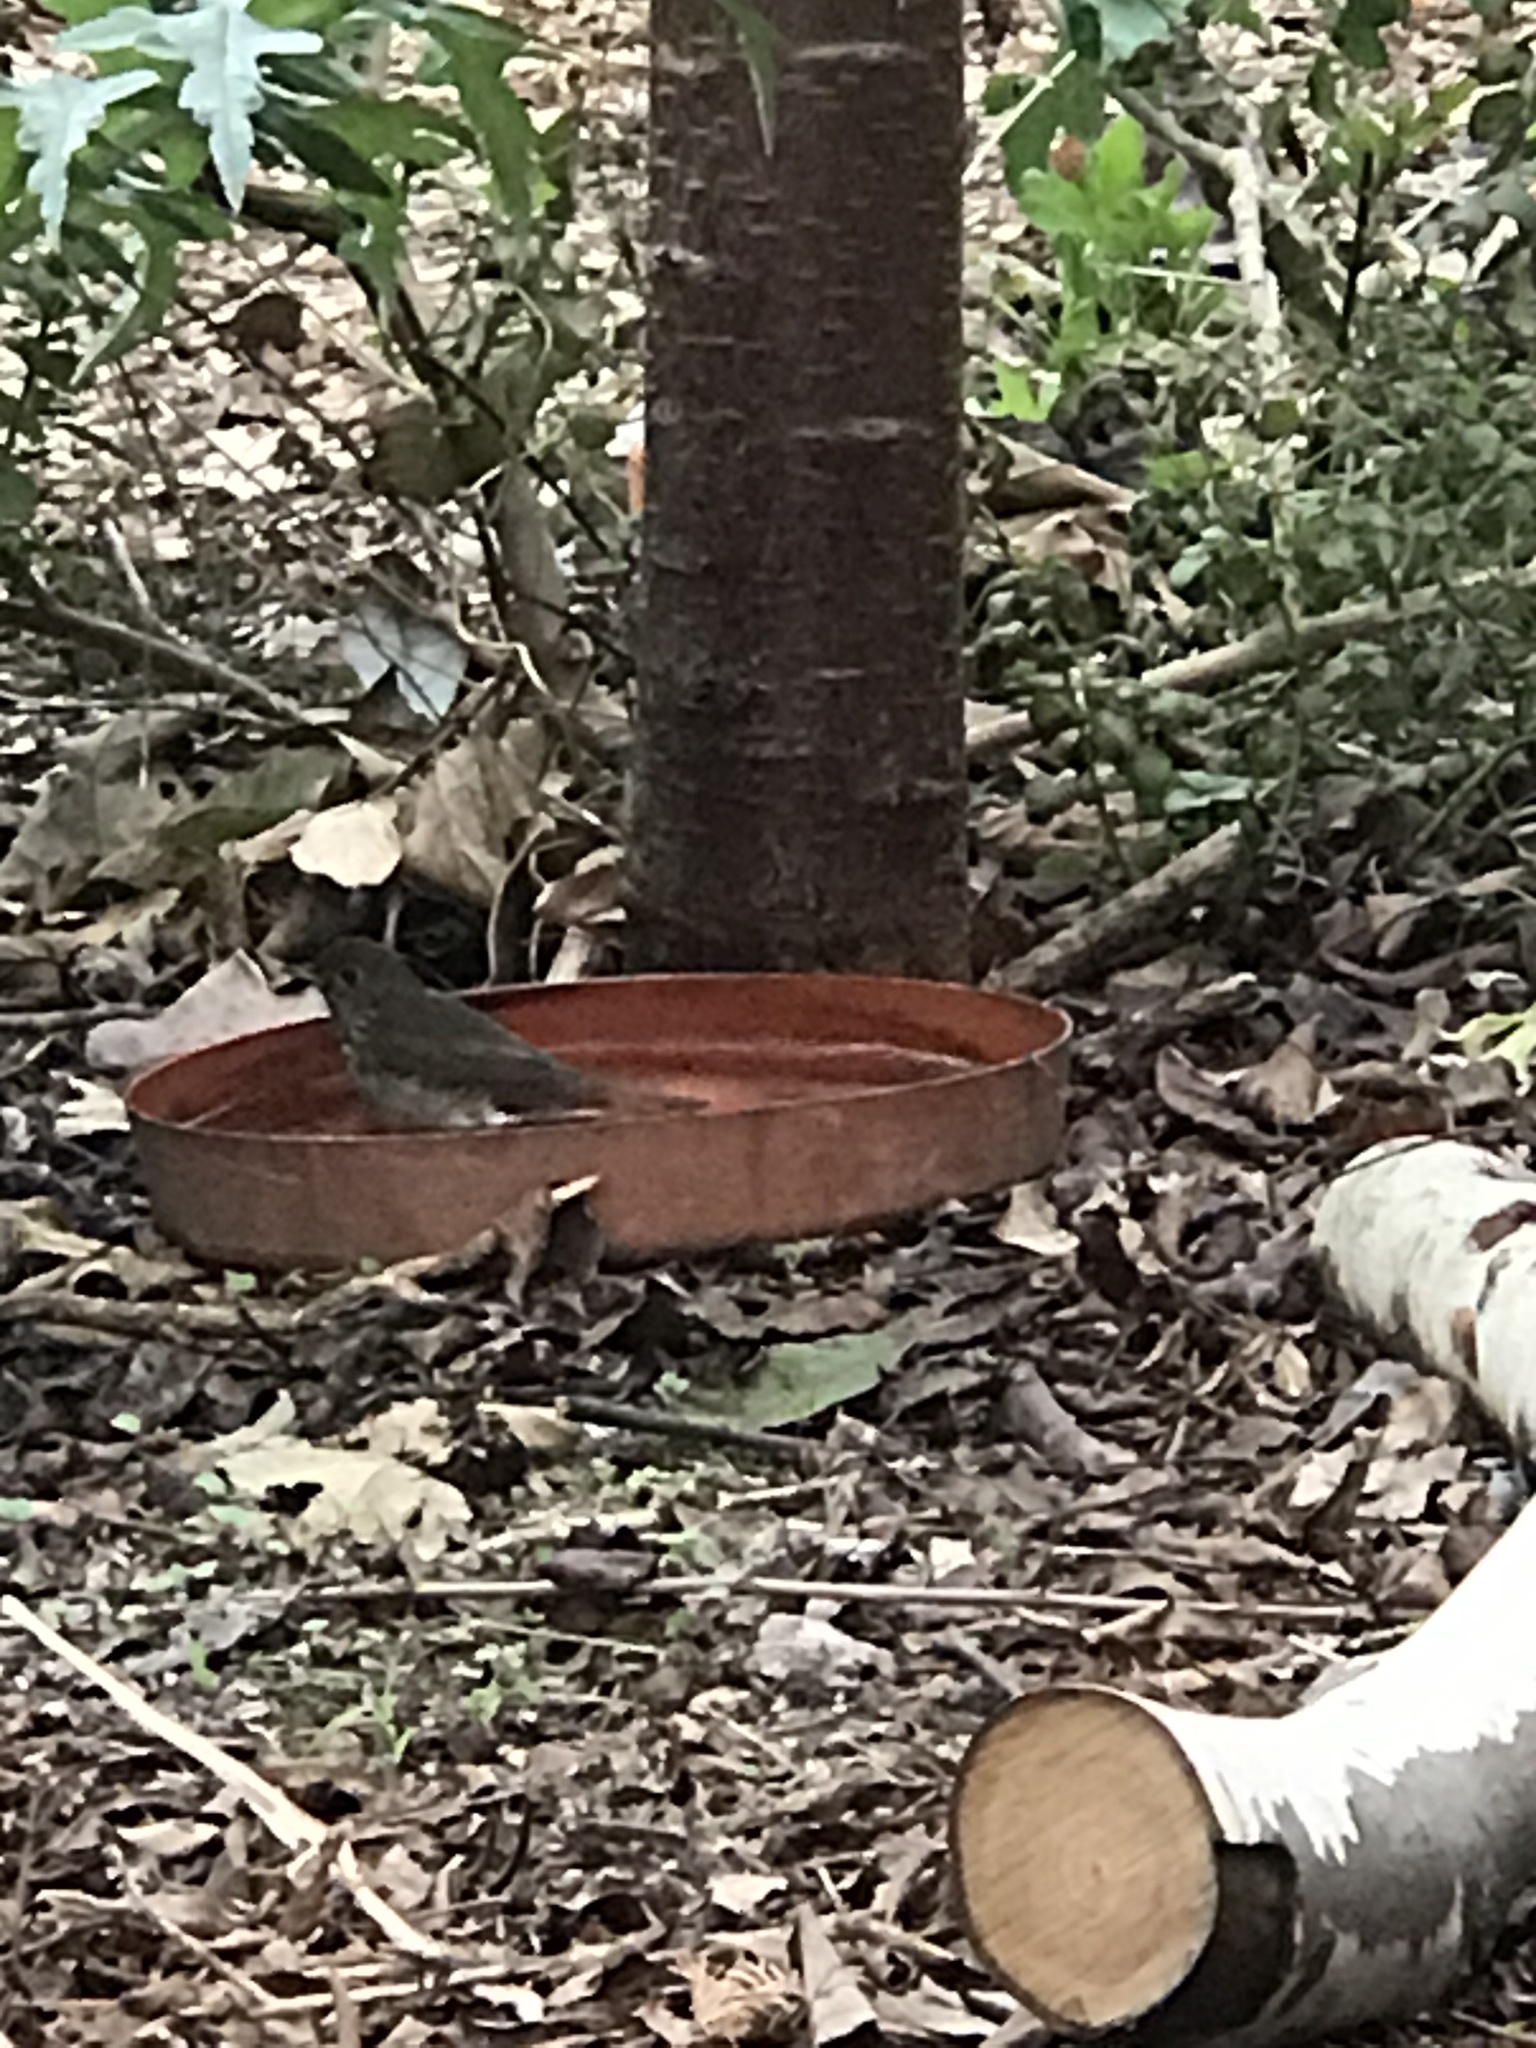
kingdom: Animalia
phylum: Chordata
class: Aves
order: Passeriformes
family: Turdidae
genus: Catharus
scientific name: Catharus guttatus
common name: Hermit thrush
